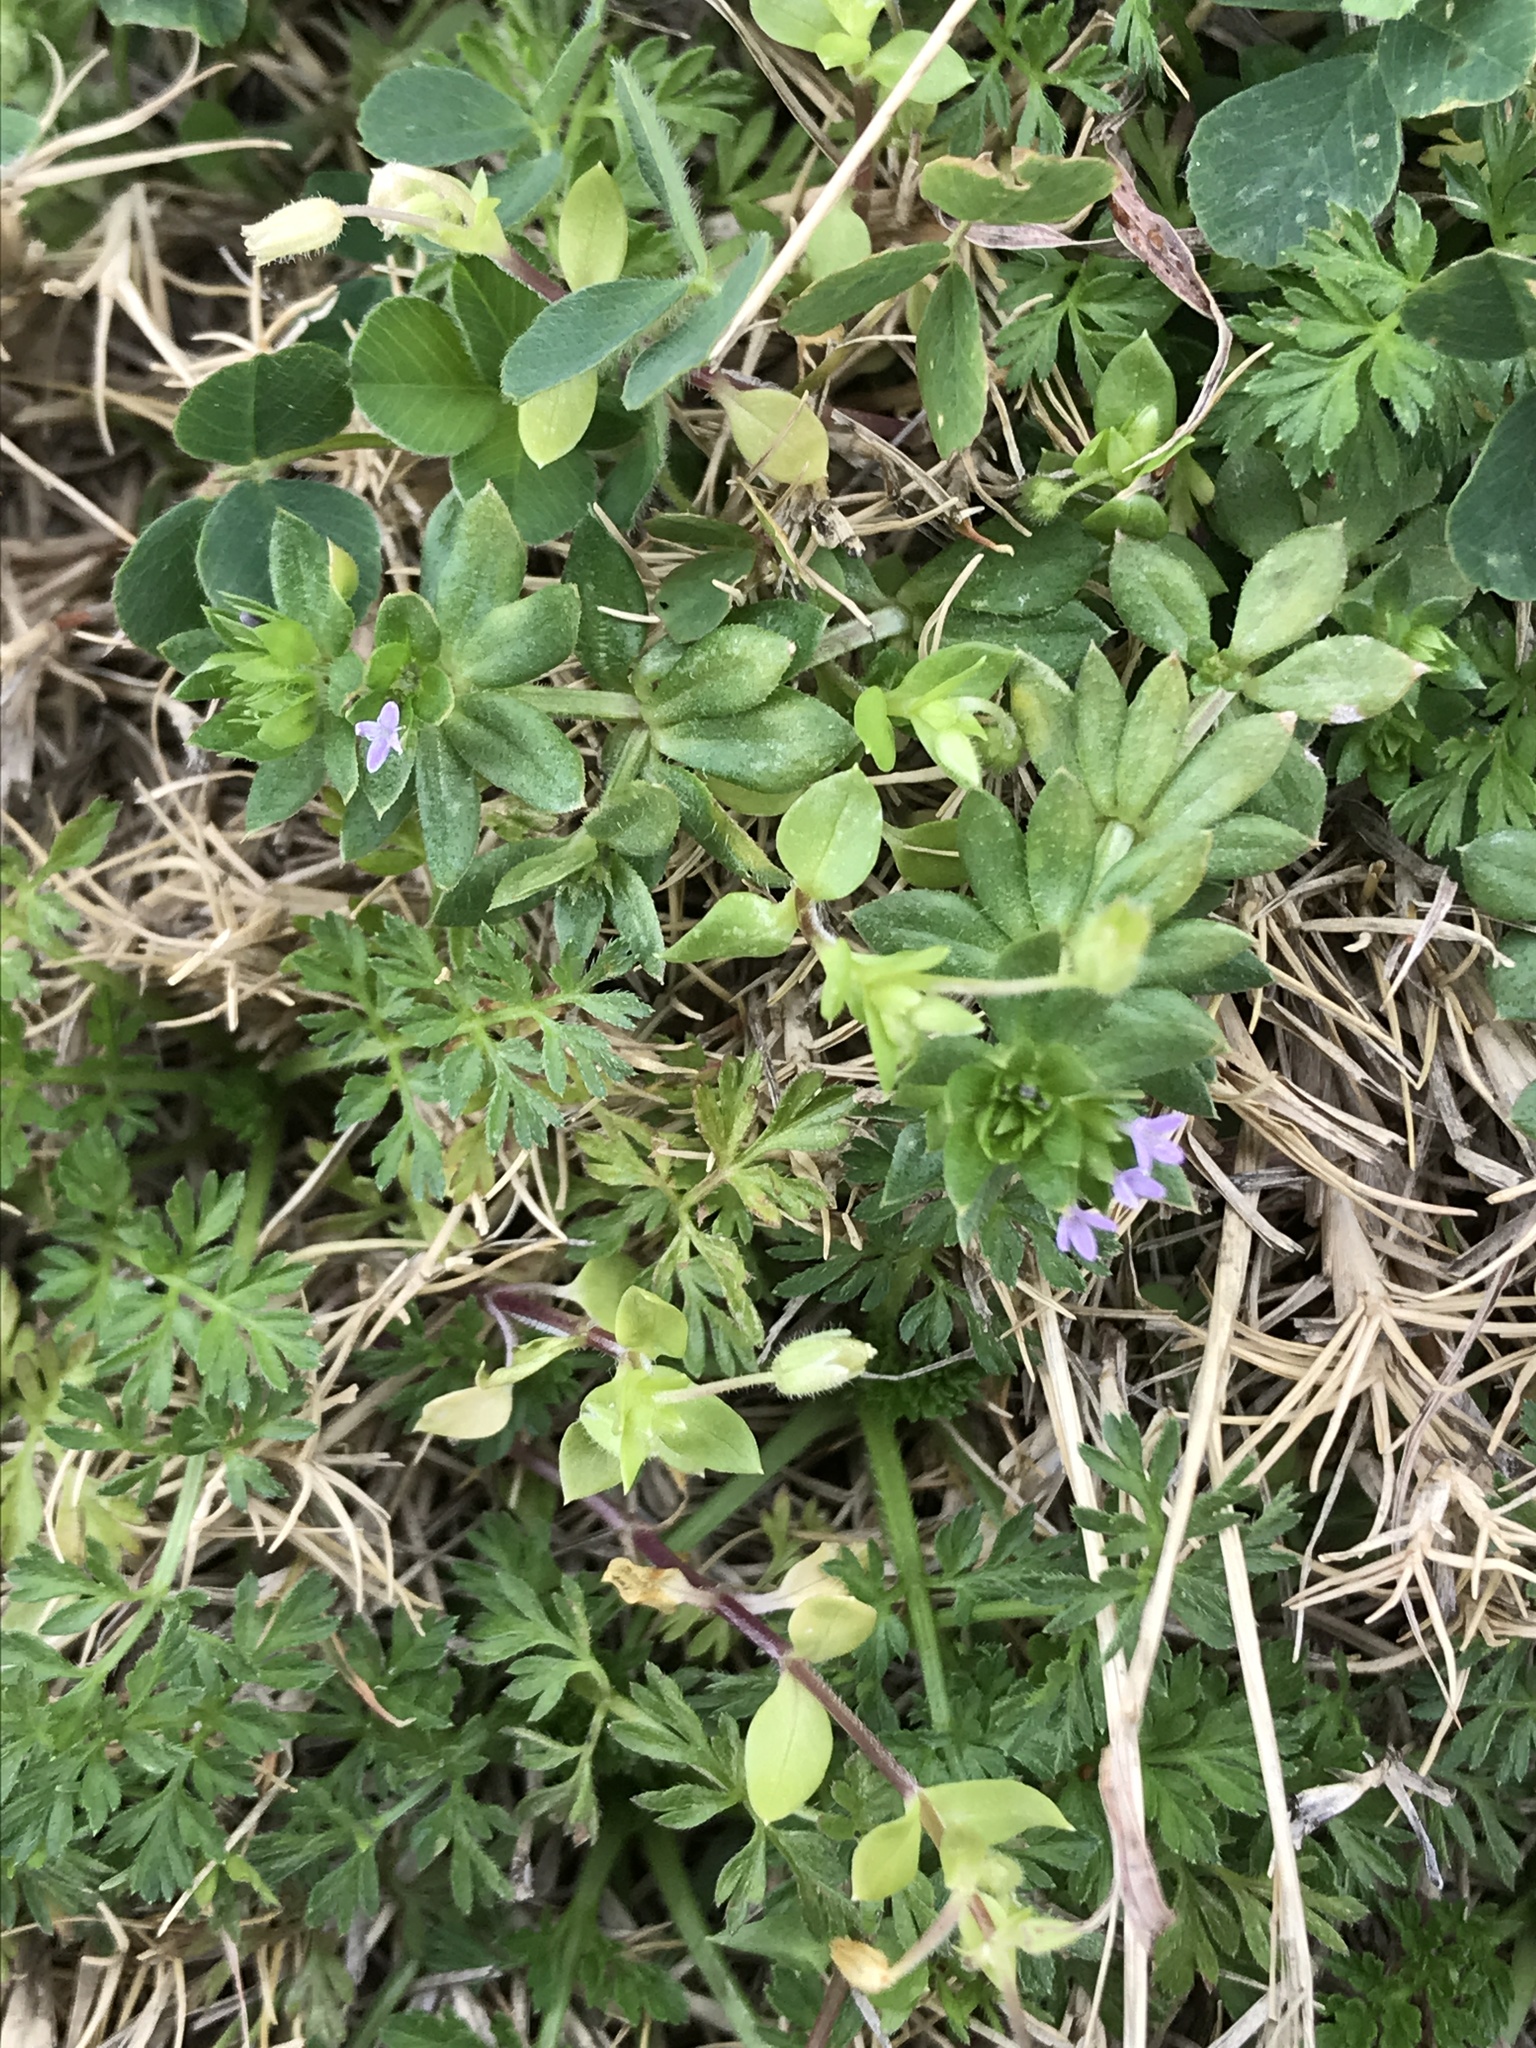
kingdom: Plantae
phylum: Tracheophyta
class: Magnoliopsida
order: Gentianales
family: Rubiaceae
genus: Sherardia
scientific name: Sherardia arvensis
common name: Field madder
